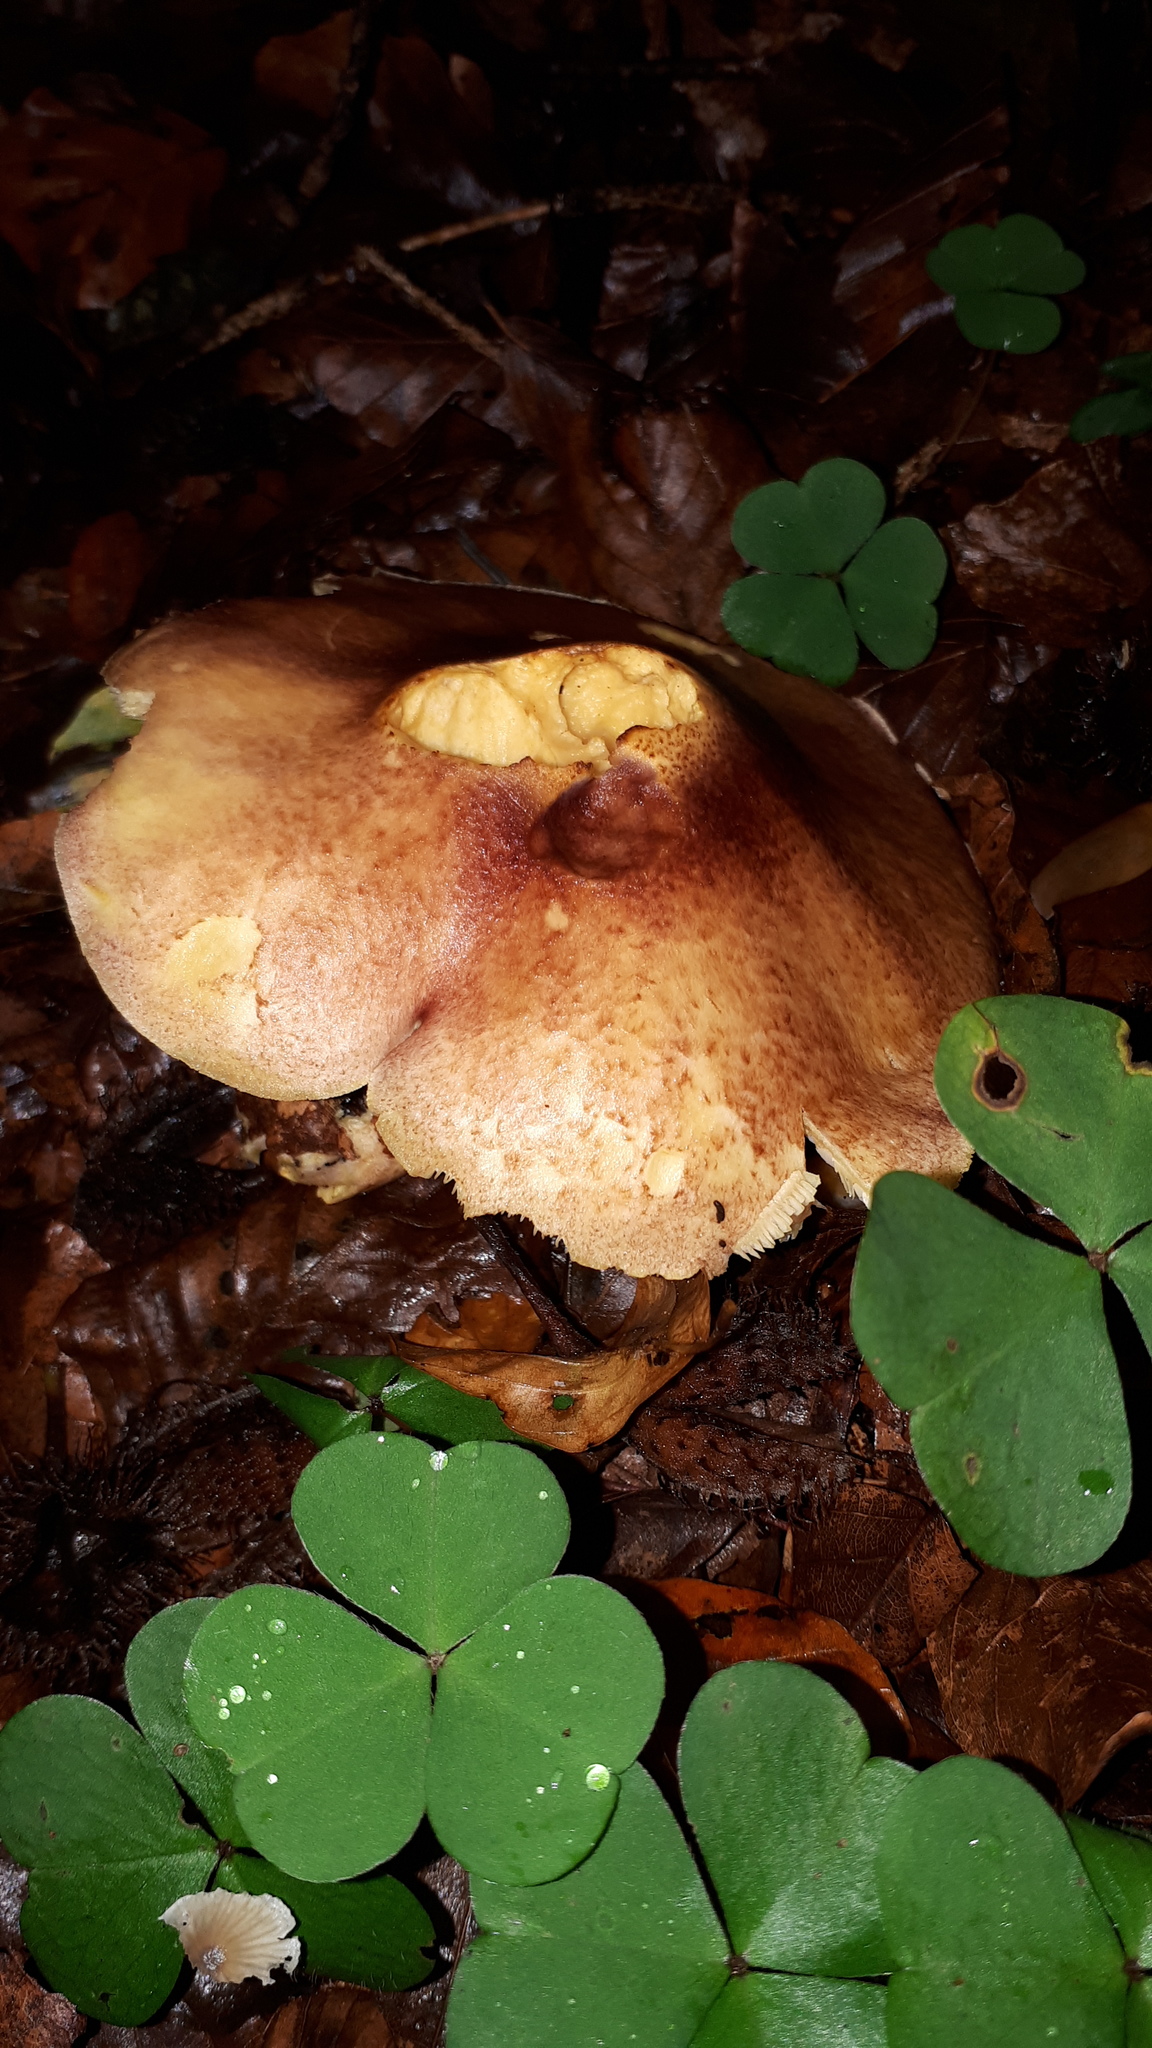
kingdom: Fungi
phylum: Basidiomycota
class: Agaricomycetes
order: Agaricales
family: Tricholomataceae
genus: Tricholomopsis
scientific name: Tricholomopsis rutilans
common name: Plums and custard
